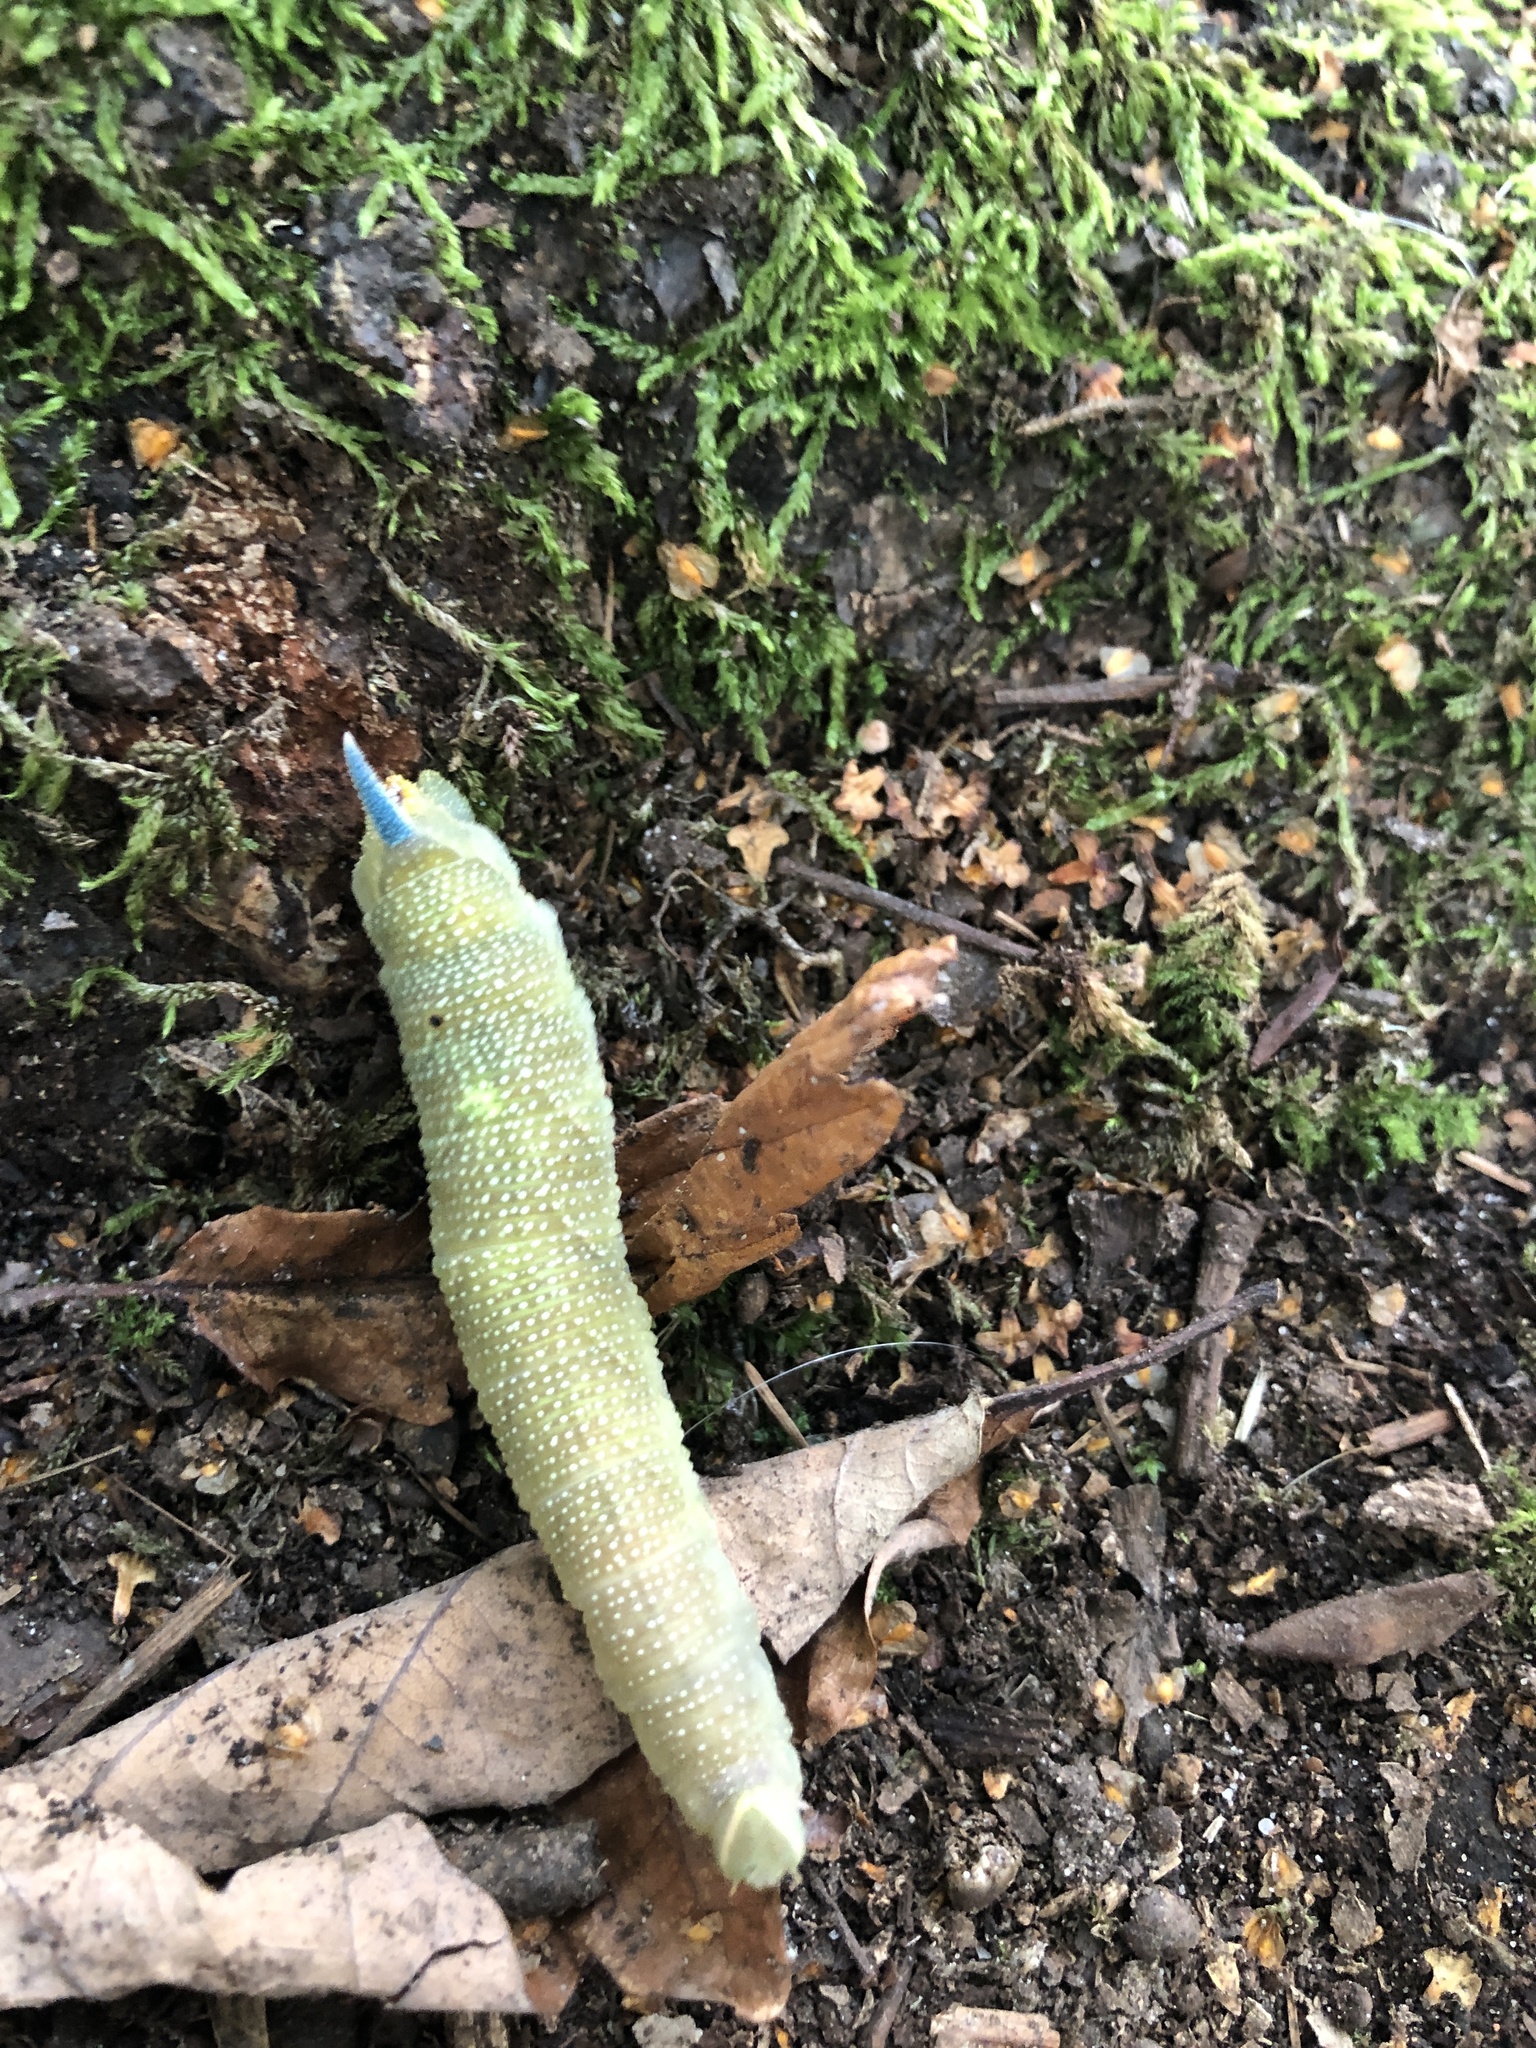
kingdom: Animalia
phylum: Arthropoda
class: Insecta
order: Lepidoptera
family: Sphingidae
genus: Mimas
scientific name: Mimas tiliae
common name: Lime hawk-moth
